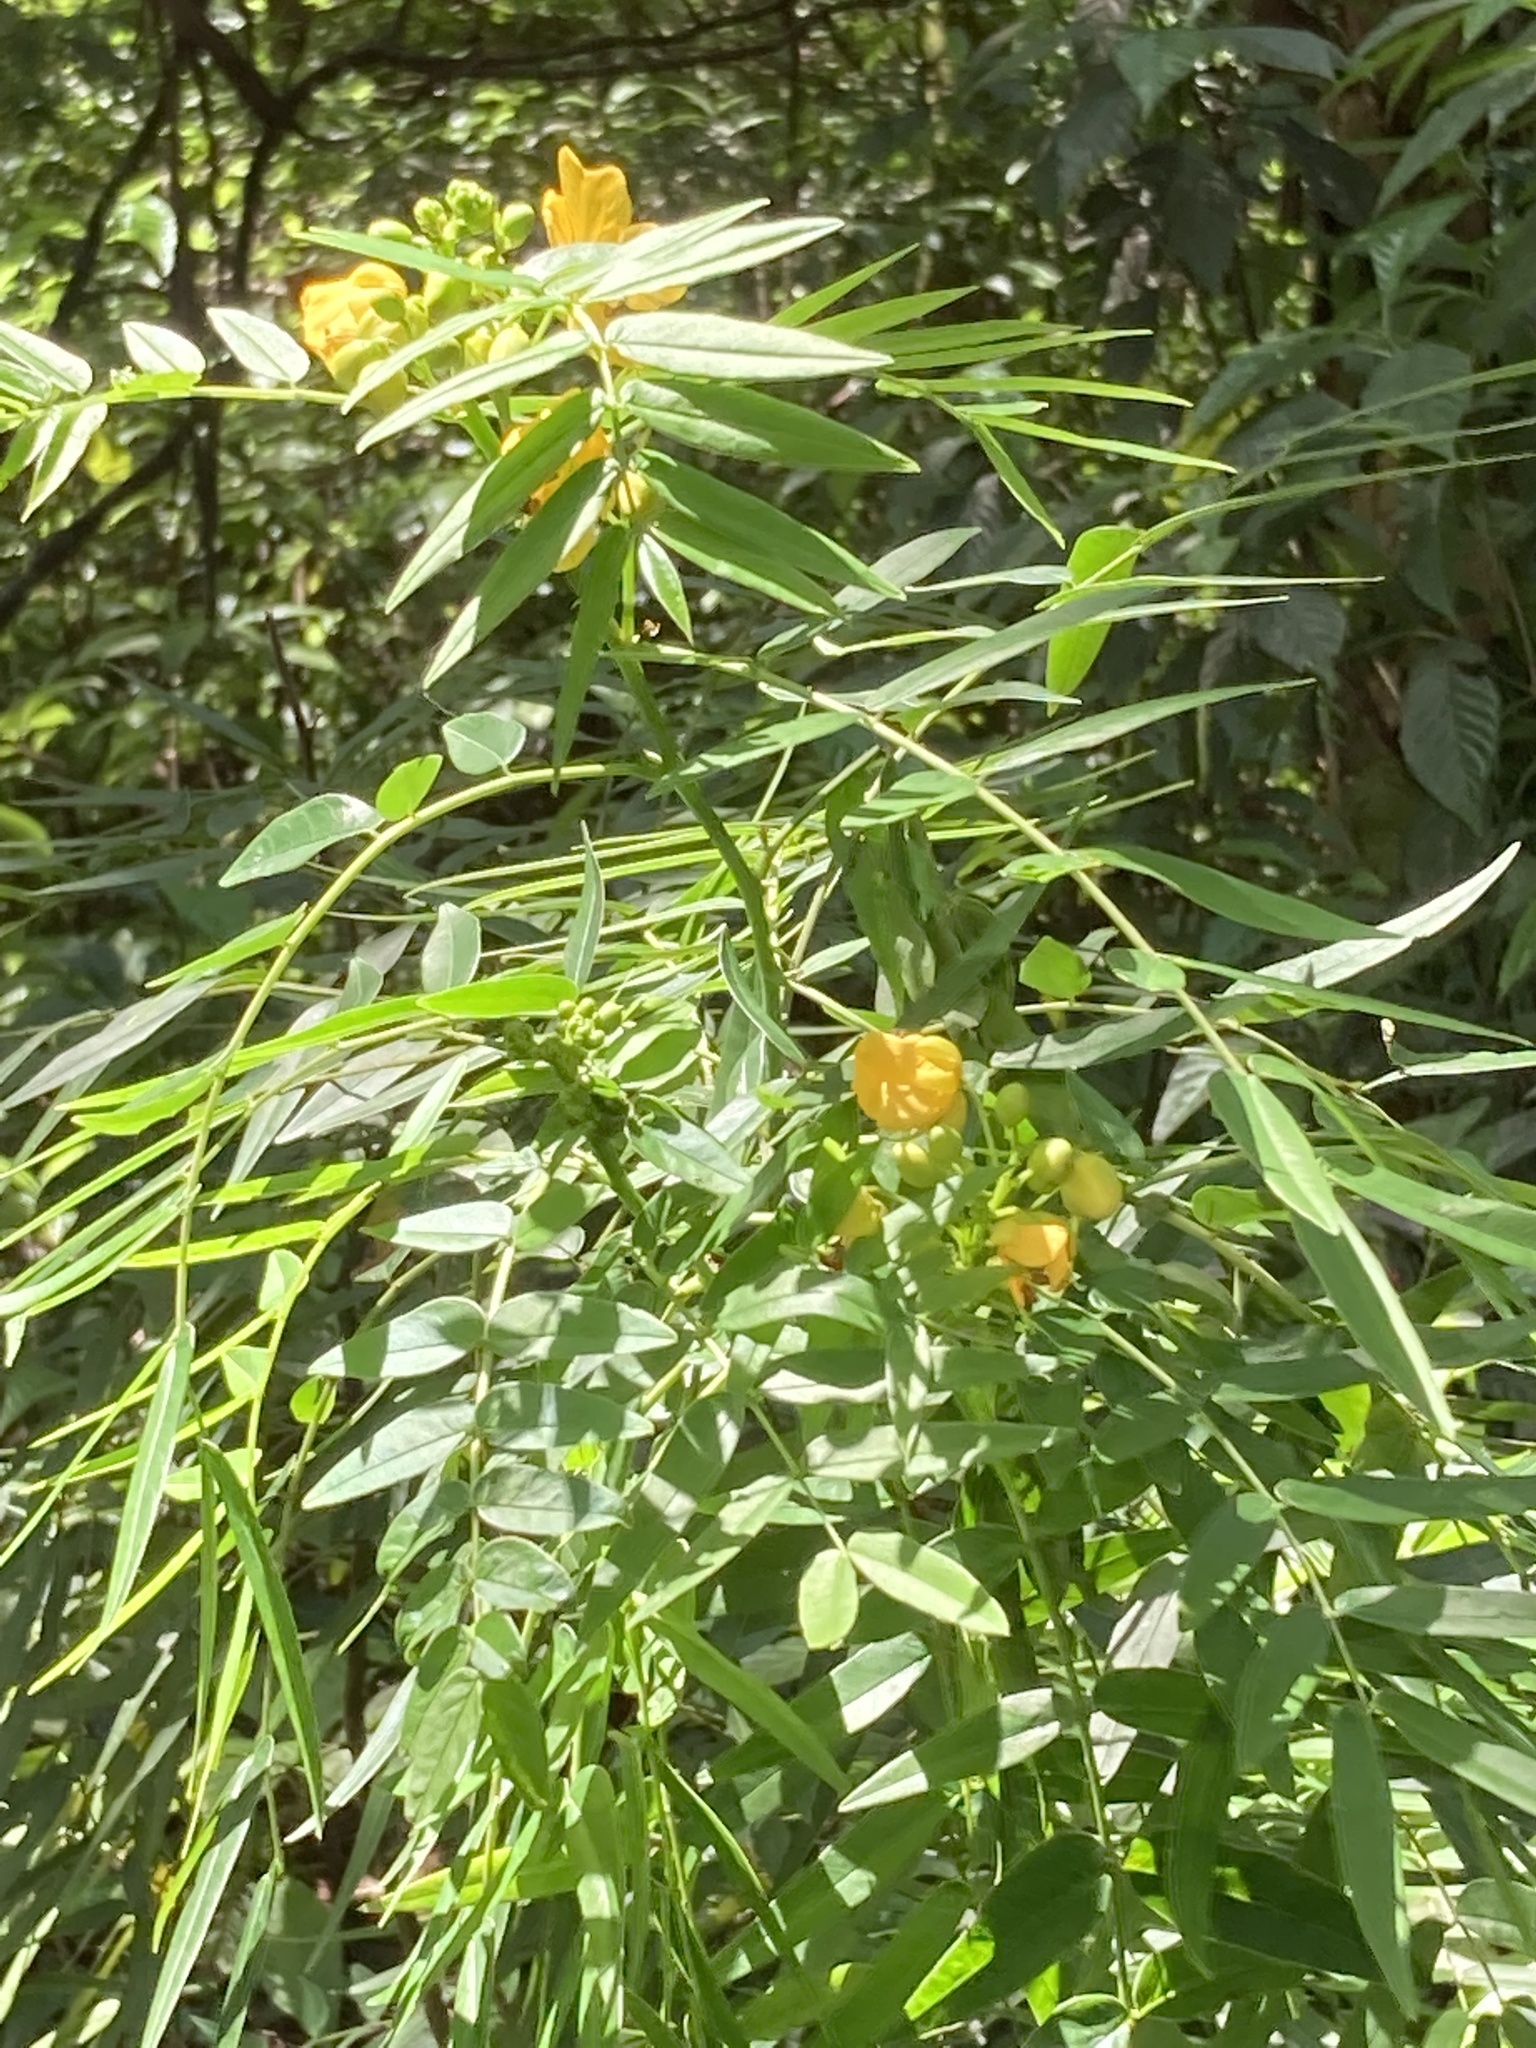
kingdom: Plantae
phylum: Tracheophyta
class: Magnoliopsida
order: Fabales
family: Fabaceae
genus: Senna
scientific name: Senna ligustrina
